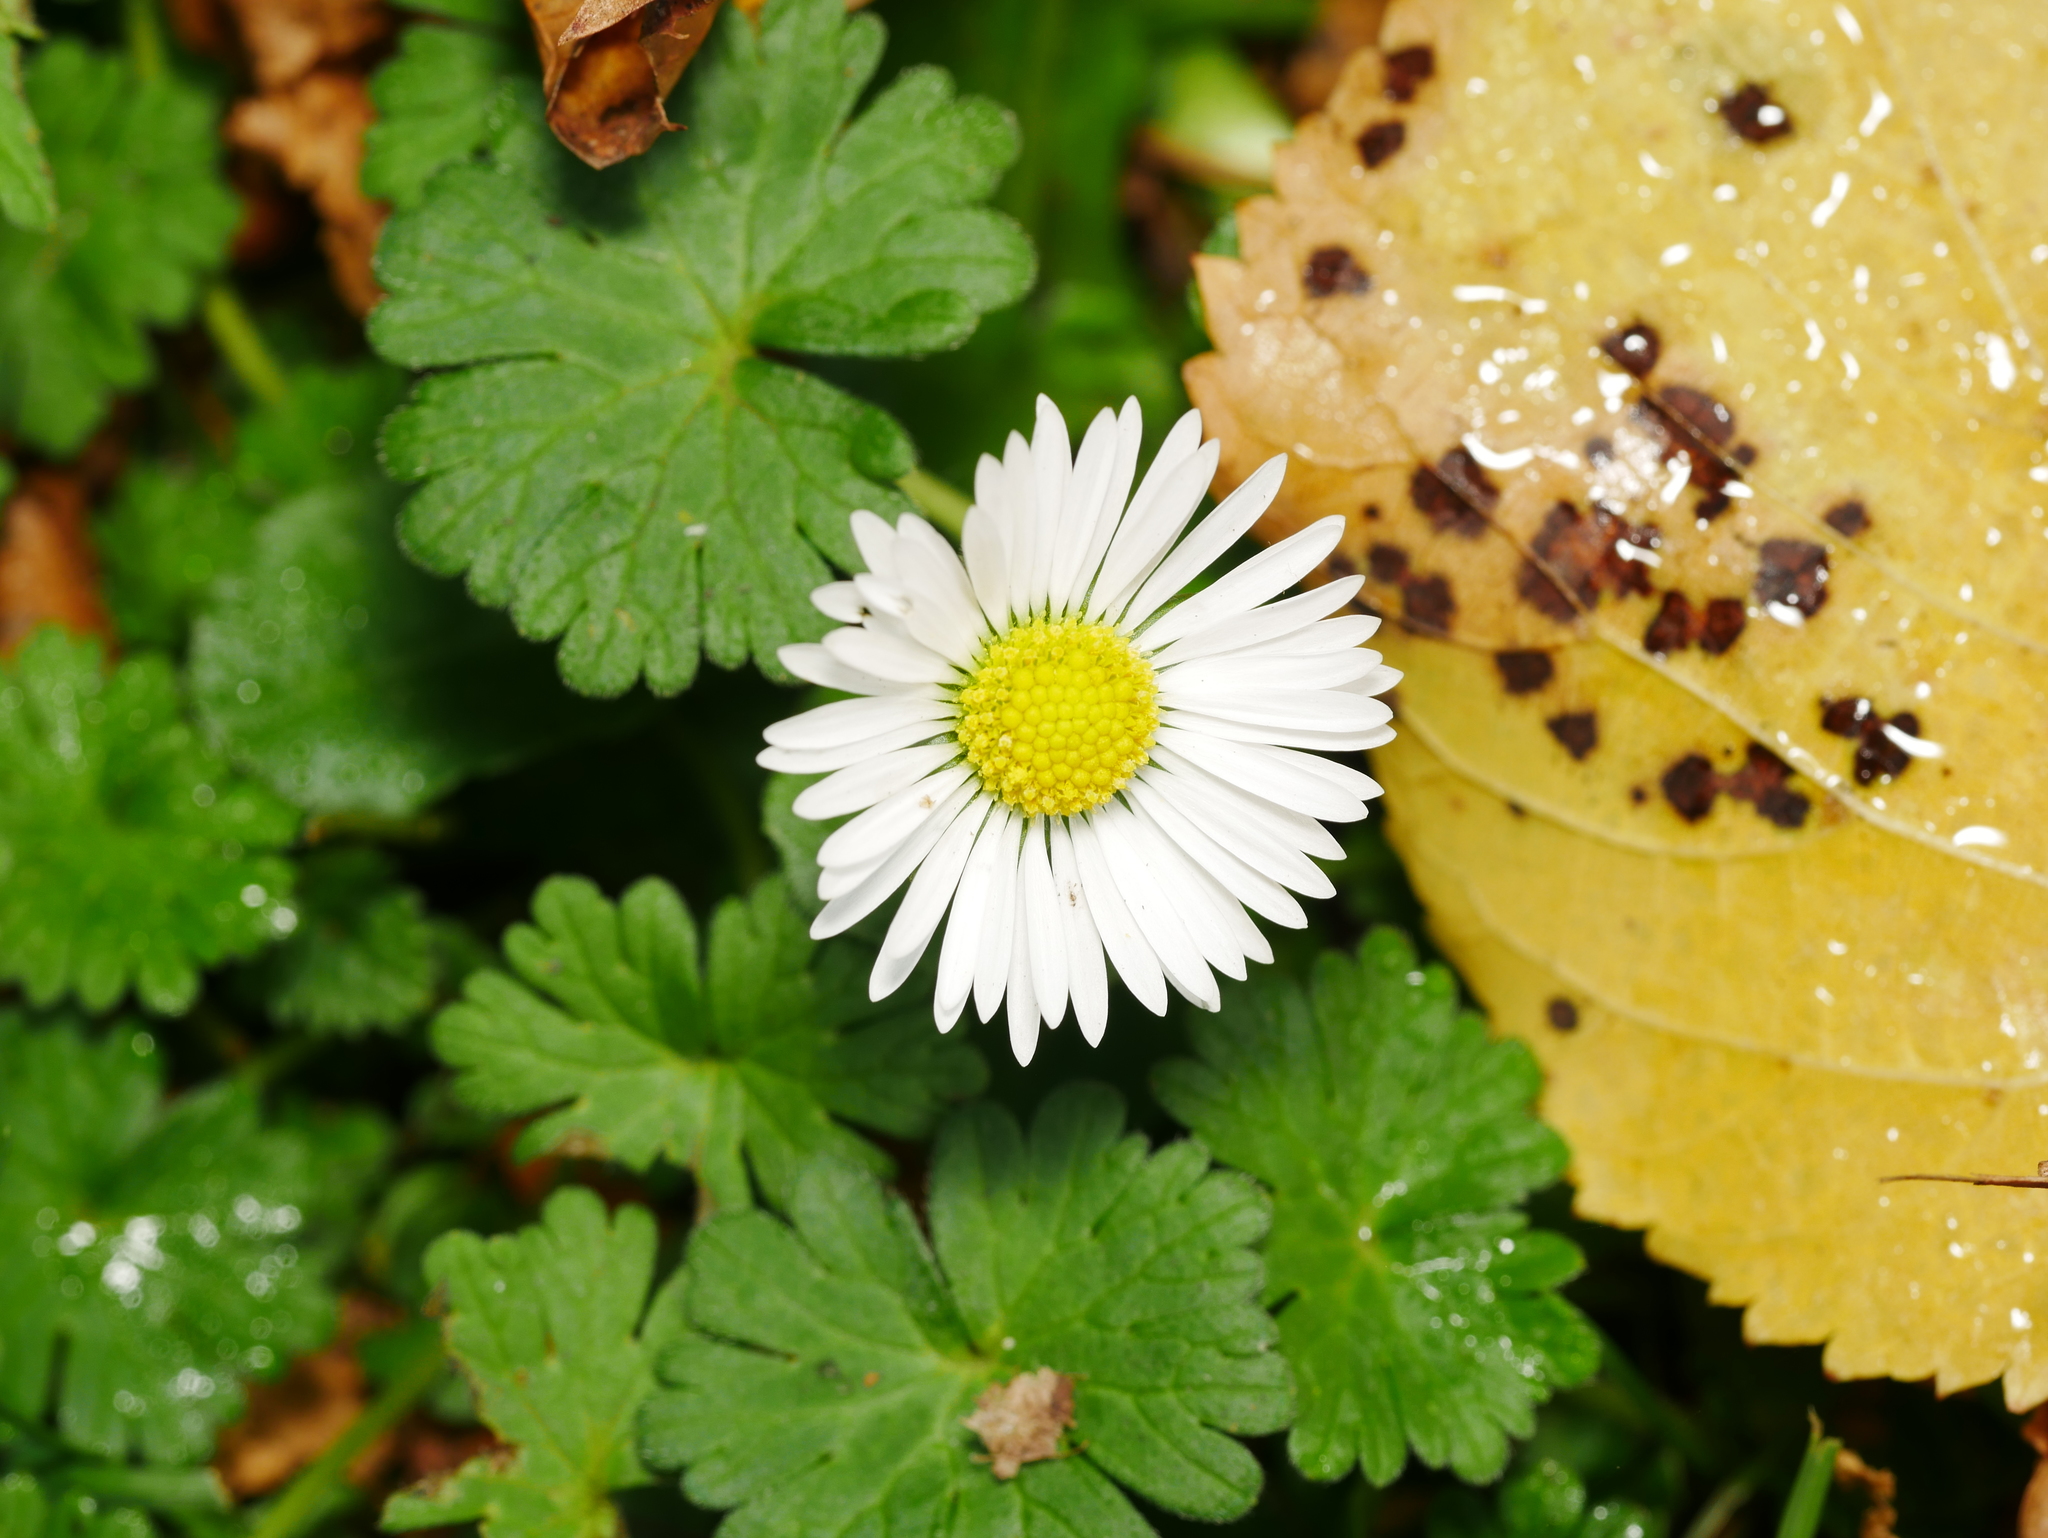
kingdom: Plantae
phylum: Tracheophyta
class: Magnoliopsida
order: Asterales
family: Asteraceae
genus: Bellis
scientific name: Bellis perennis
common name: Lawndaisy
